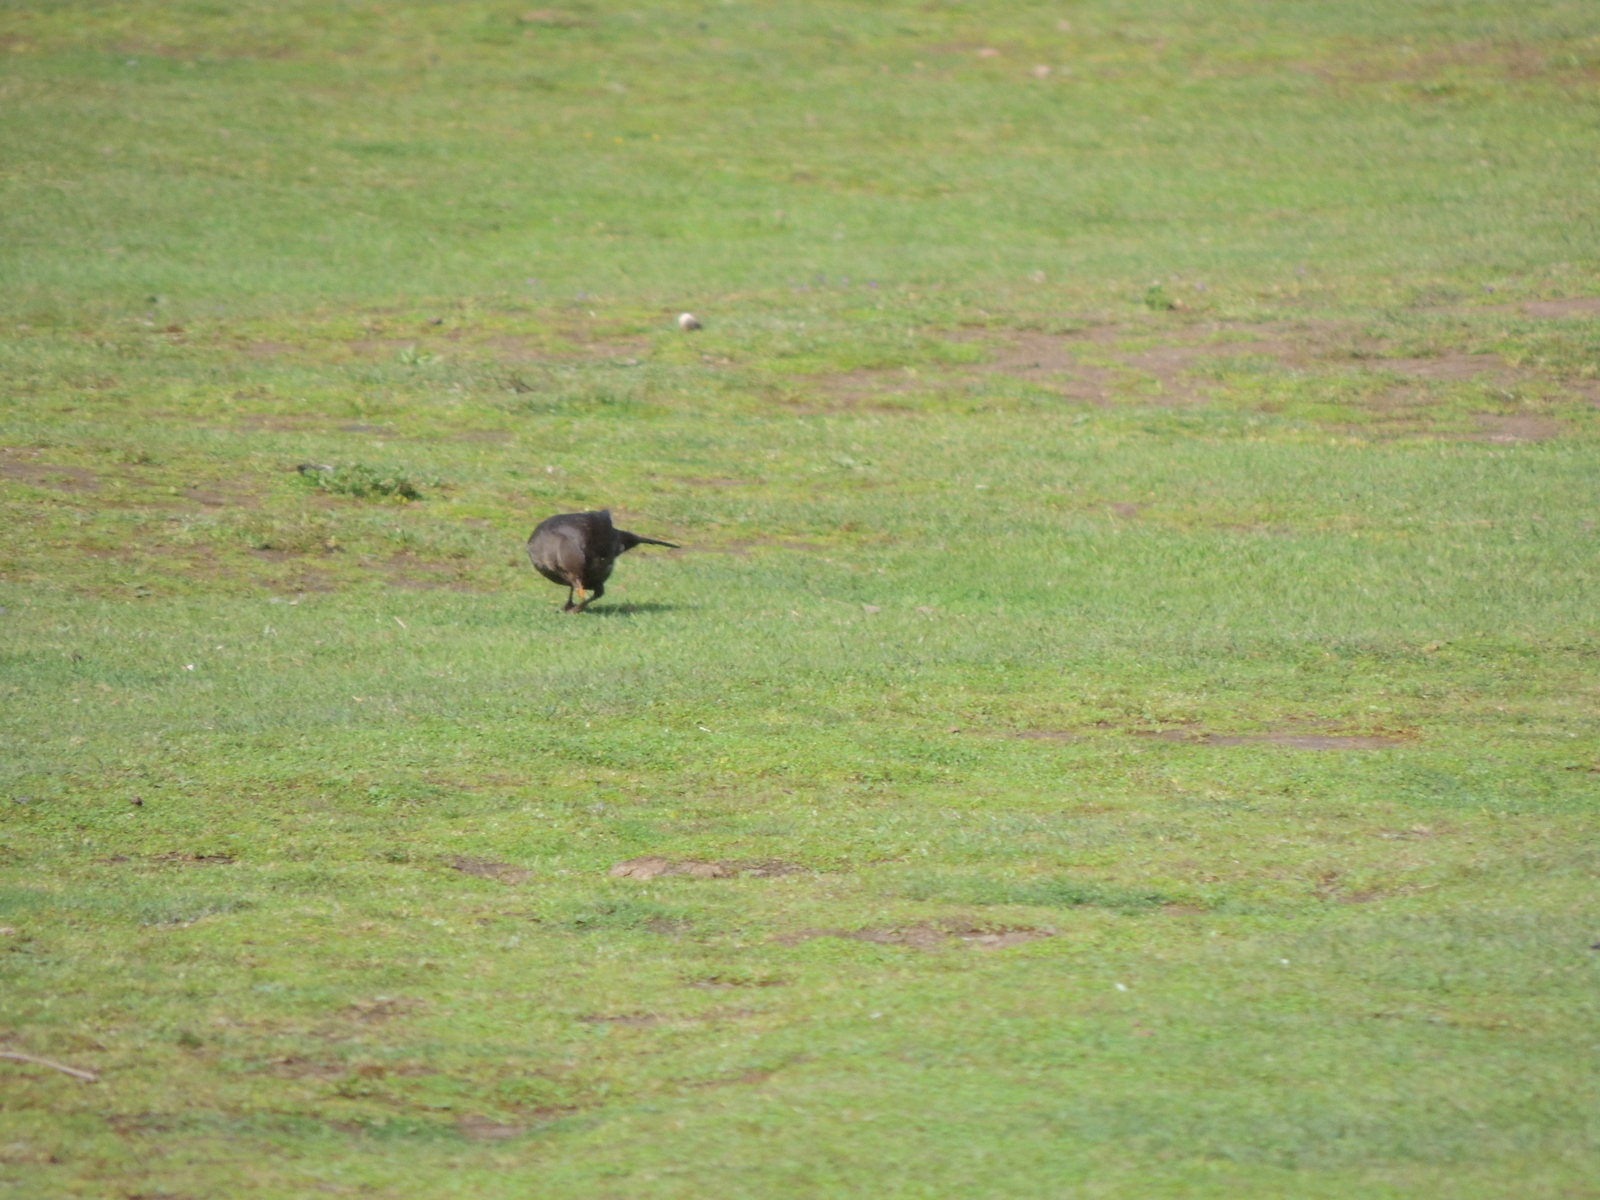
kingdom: Animalia
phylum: Chordata
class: Aves
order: Passeriformes
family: Turdidae
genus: Turdus
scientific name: Turdus merula
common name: Common blackbird
